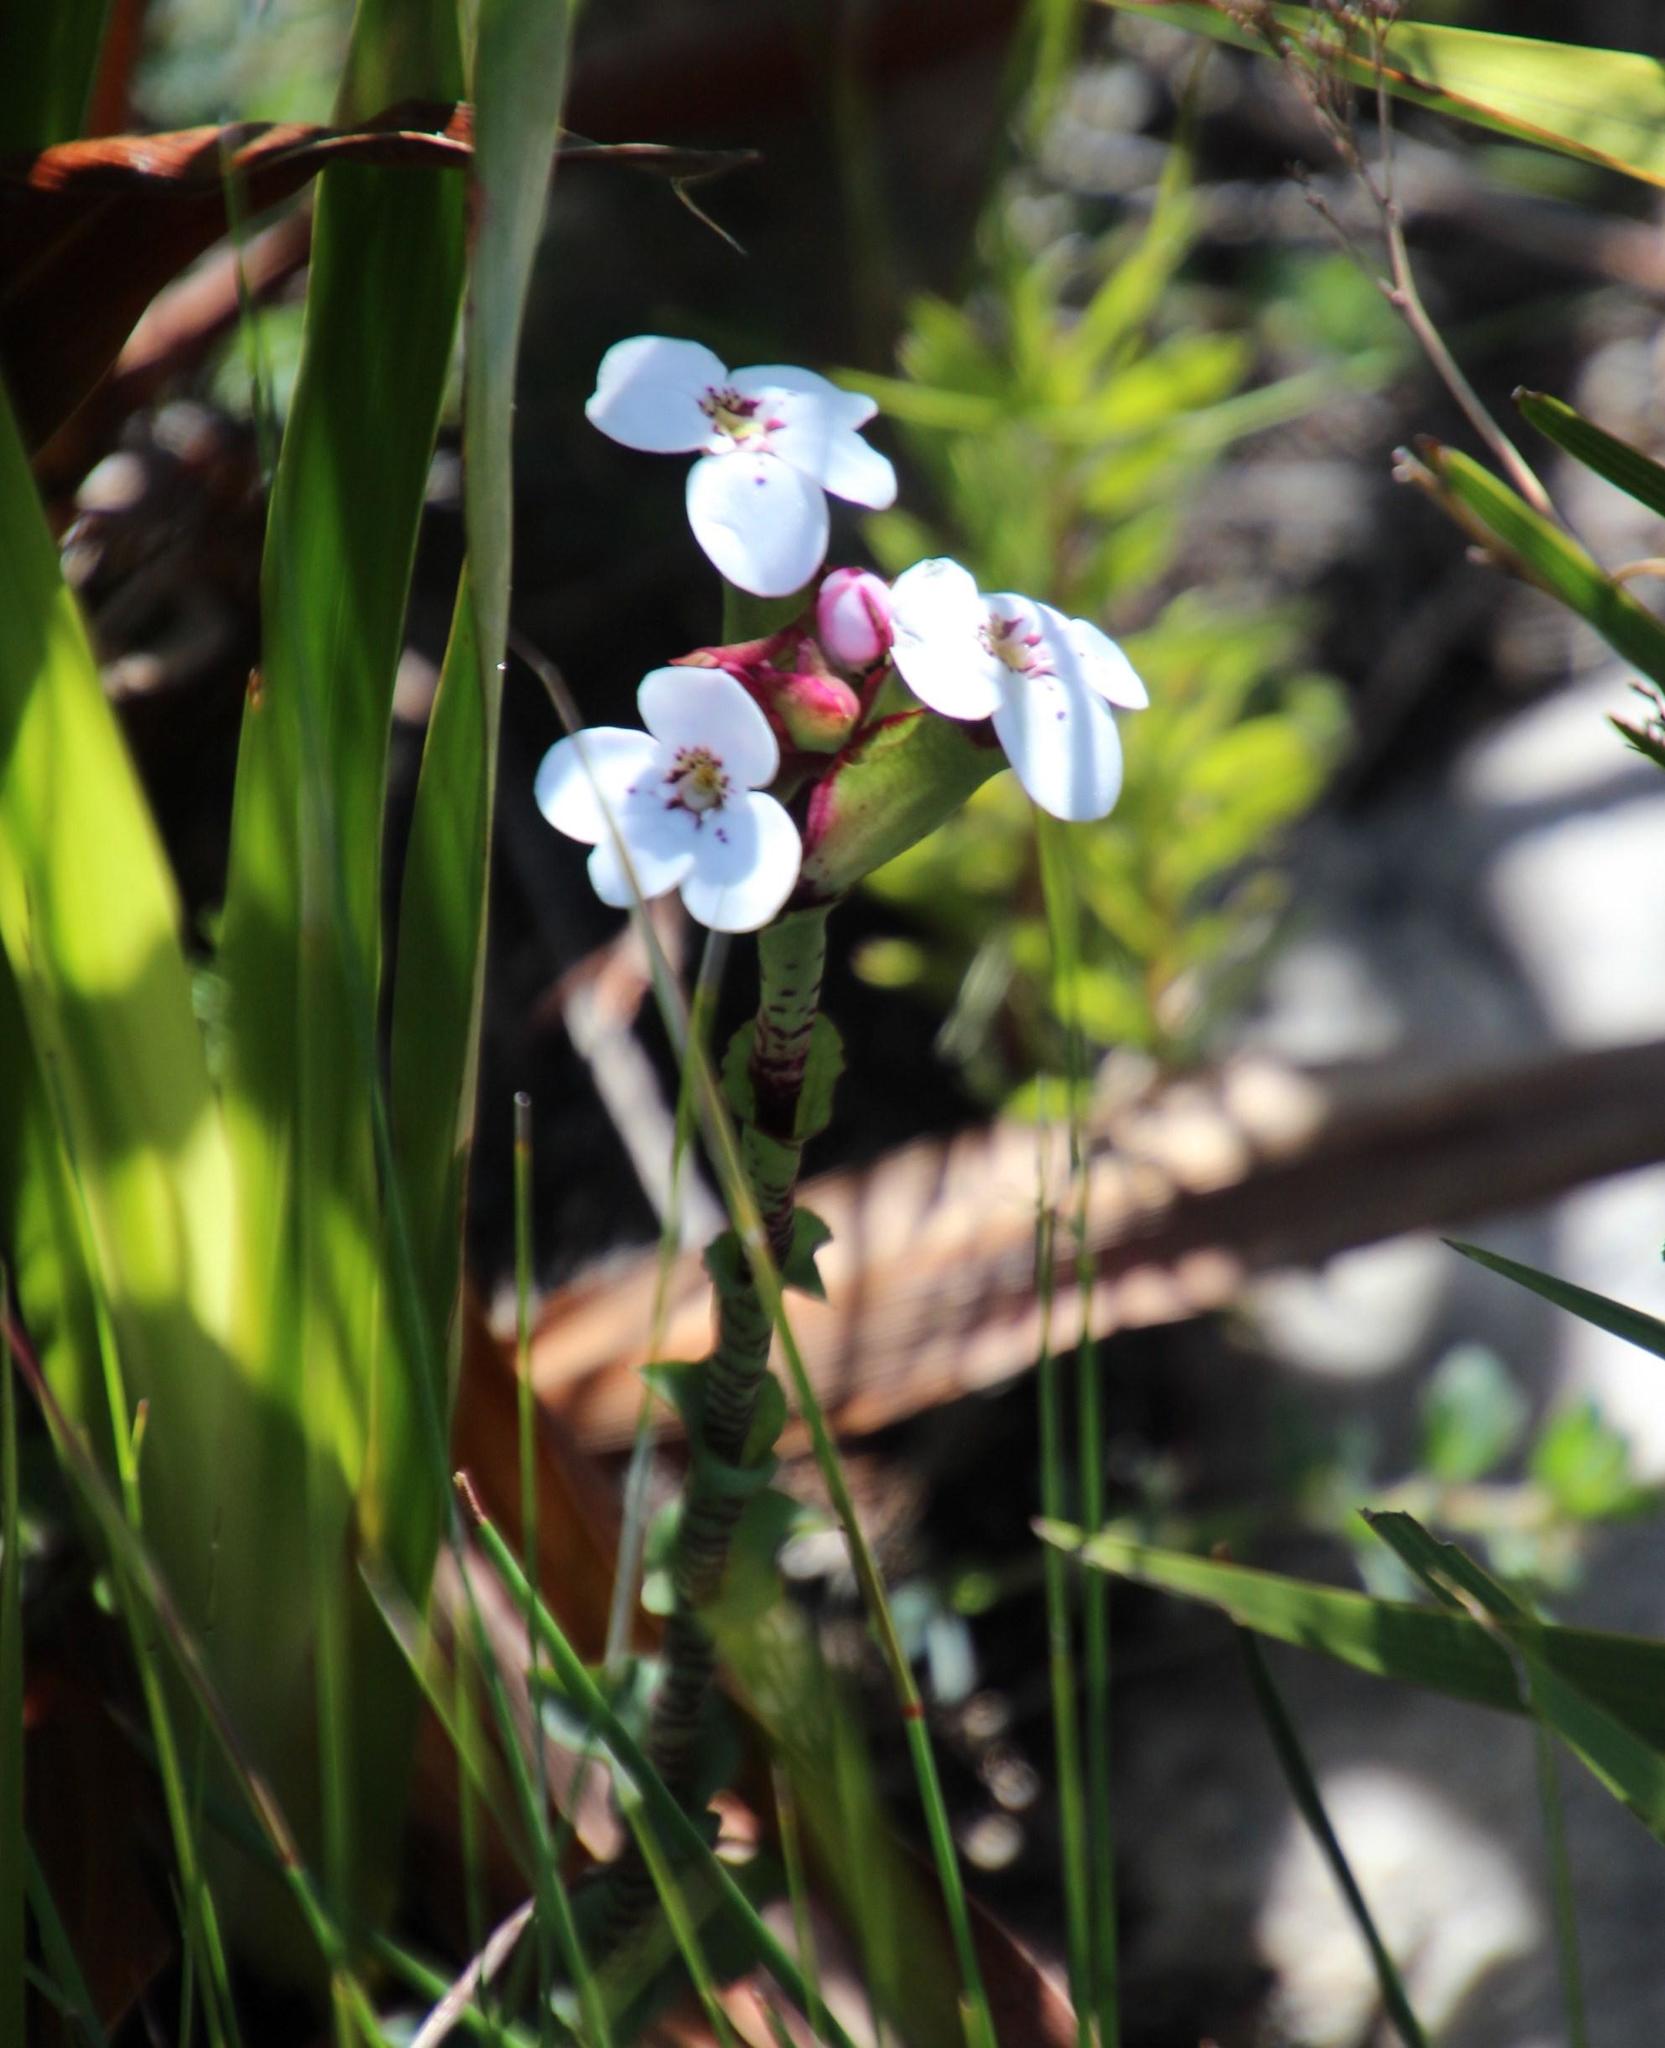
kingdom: Plantae
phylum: Tracheophyta
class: Liliopsida
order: Asparagales
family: Orchidaceae
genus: Disa
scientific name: Disa fasciata
